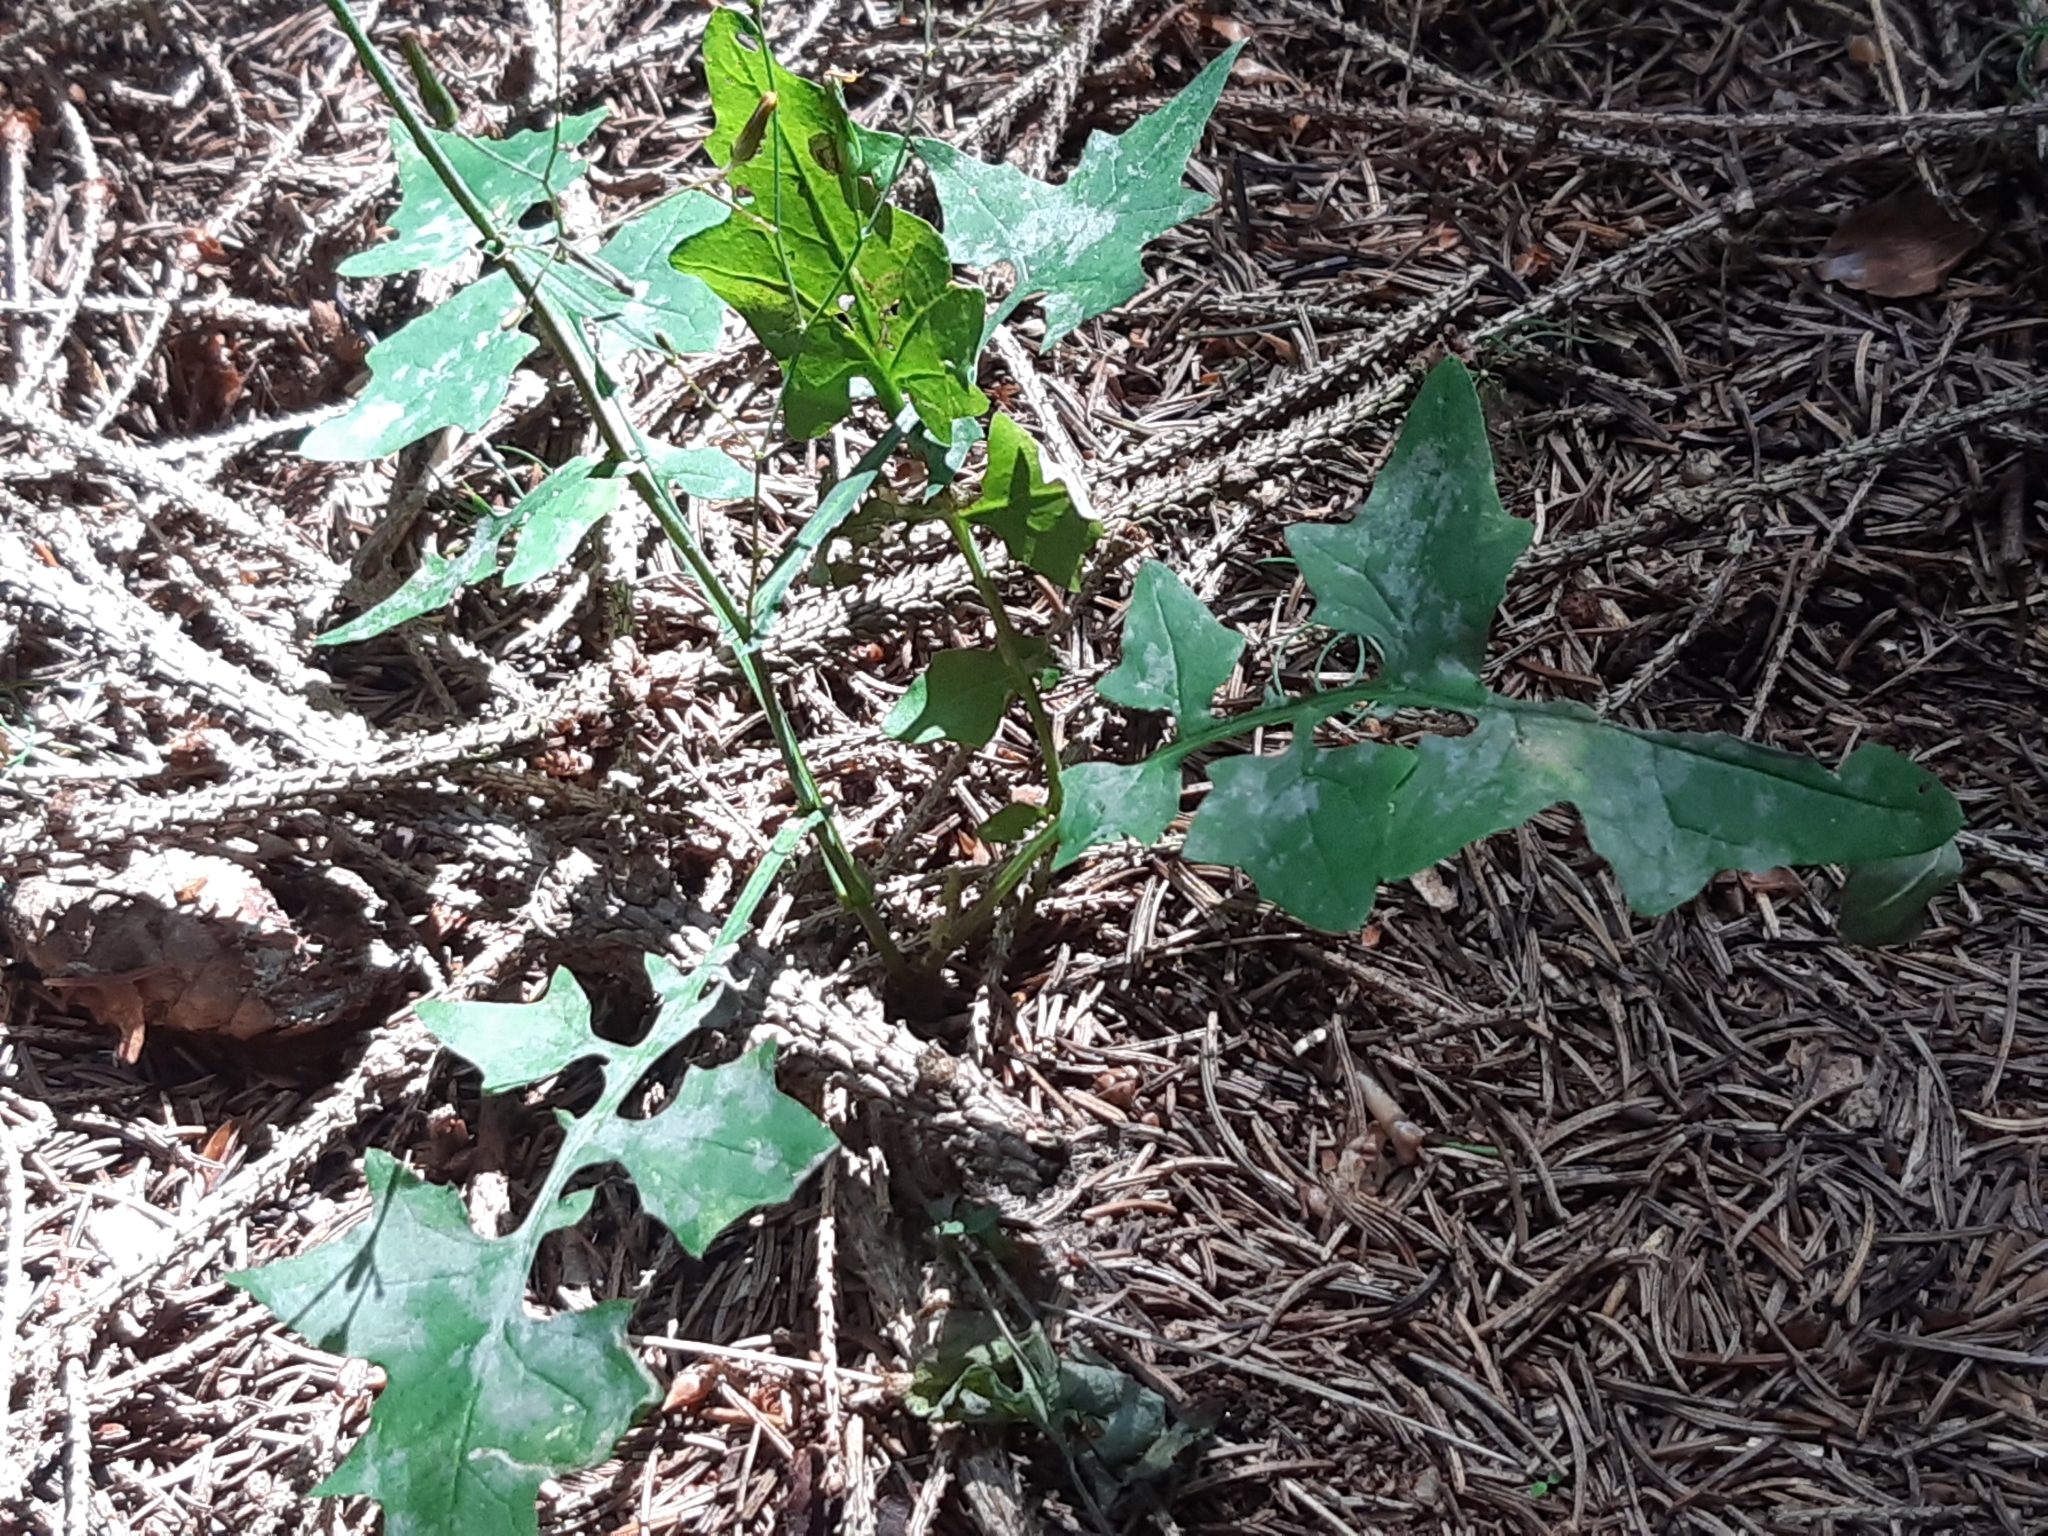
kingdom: Plantae
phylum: Tracheophyta
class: Magnoliopsida
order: Asterales
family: Asteraceae
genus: Mycelis
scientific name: Mycelis muralis
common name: Wall lettuce
